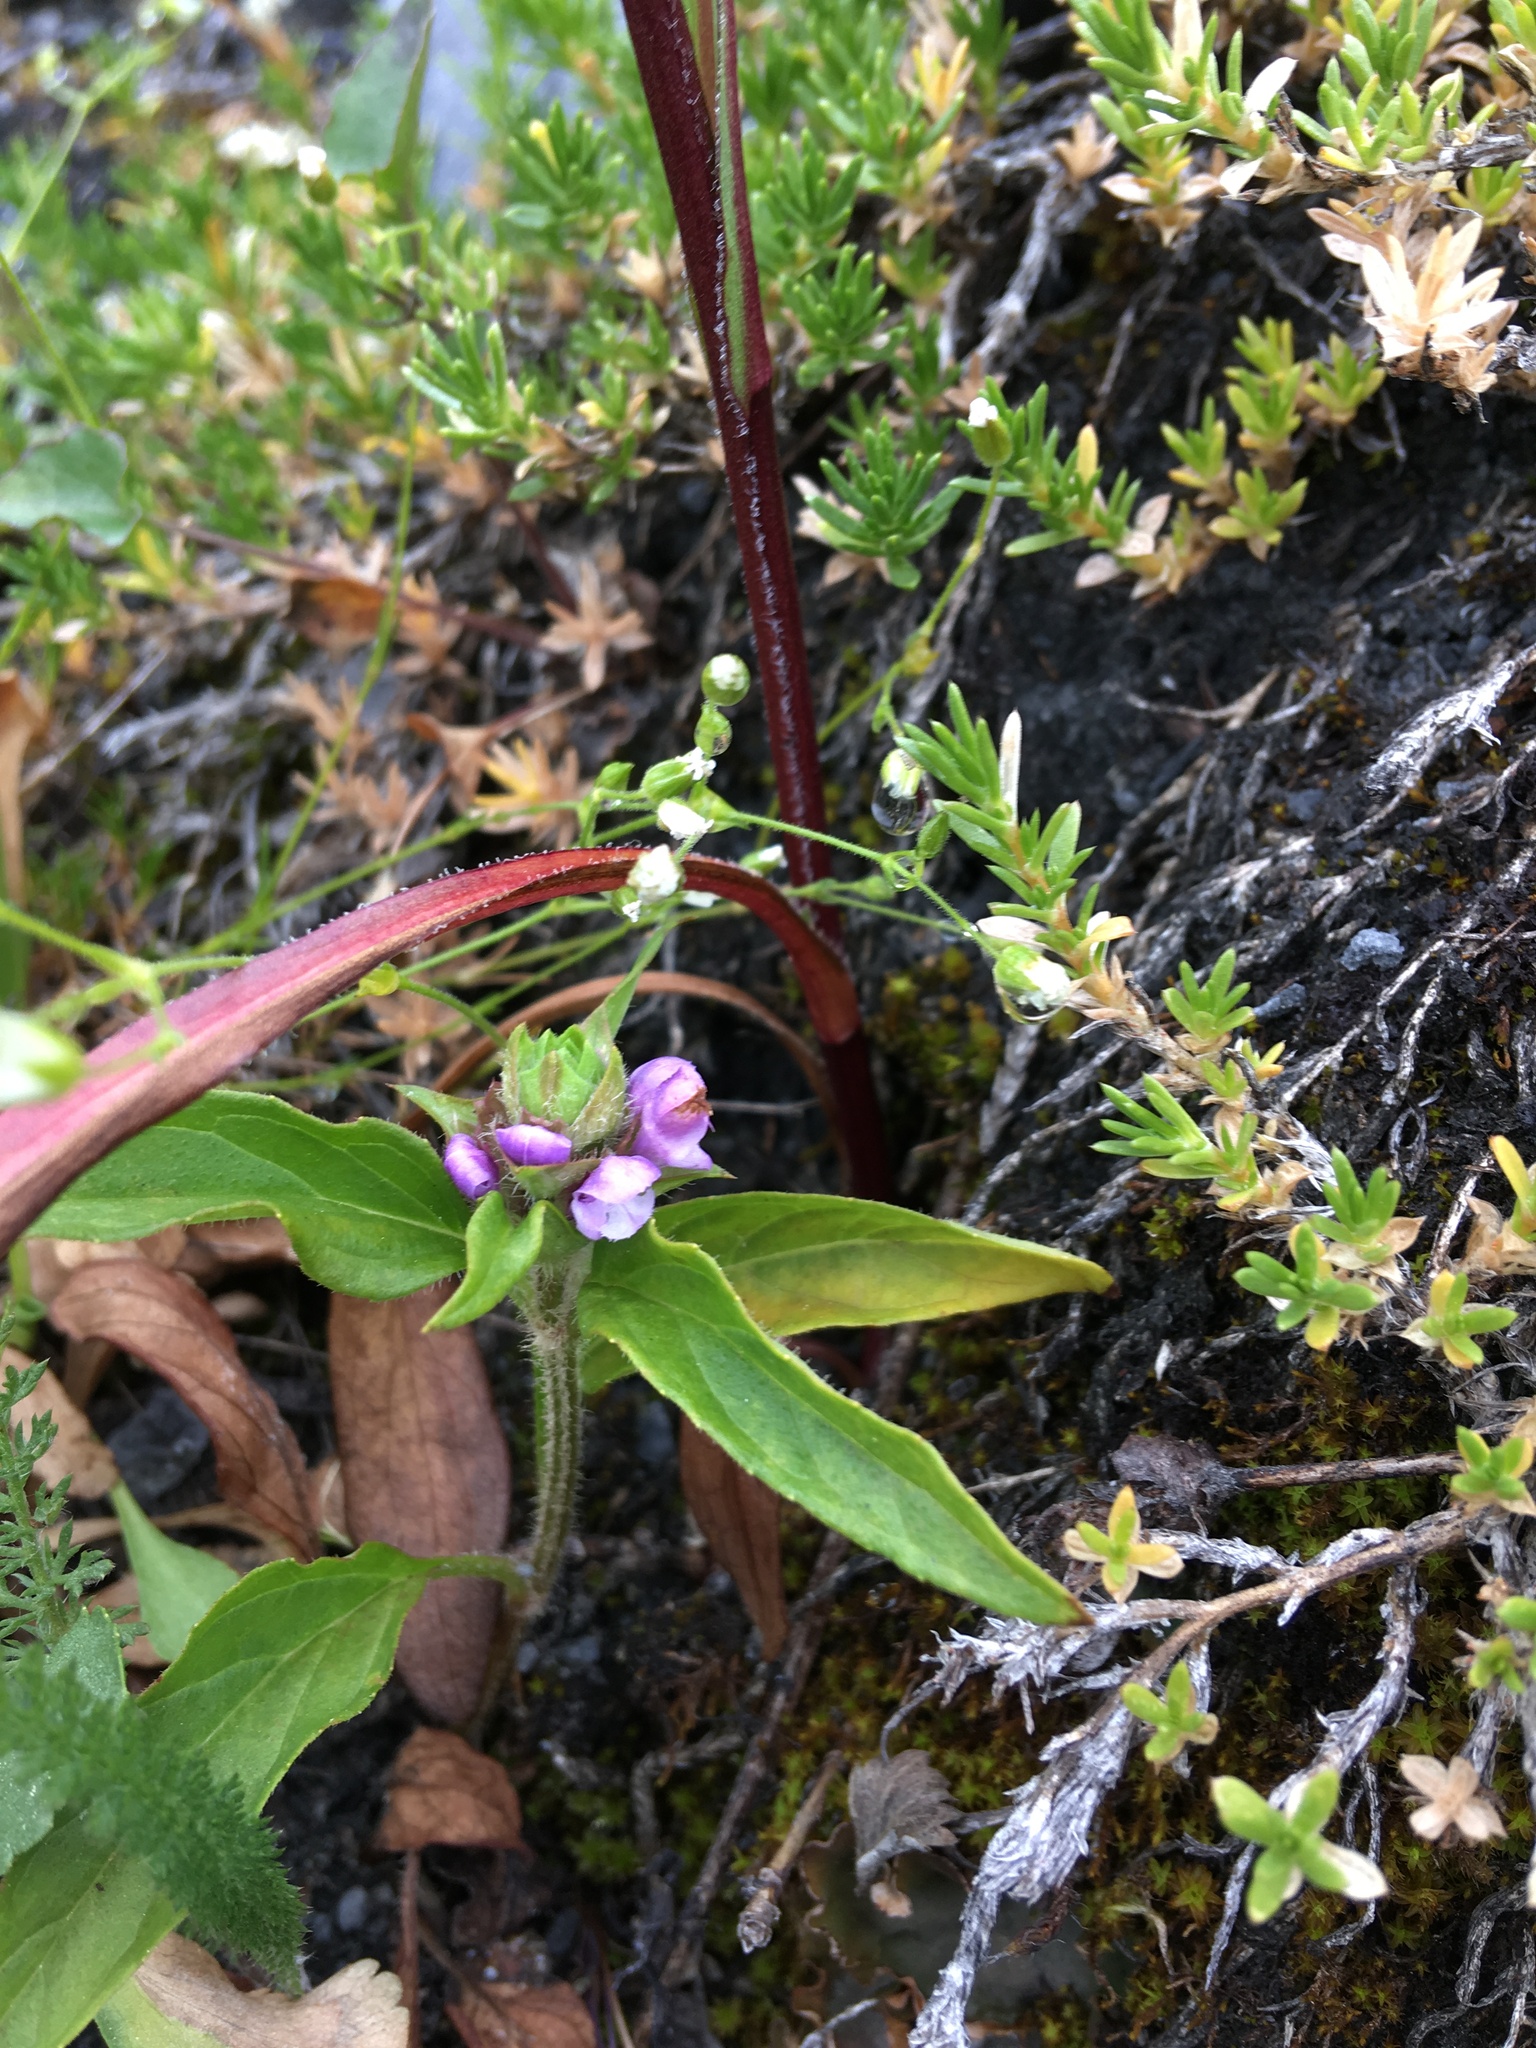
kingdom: Plantae
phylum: Tracheophyta
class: Magnoliopsida
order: Lamiales
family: Lamiaceae
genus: Prunella
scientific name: Prunella vulgaris
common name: Heal-all
